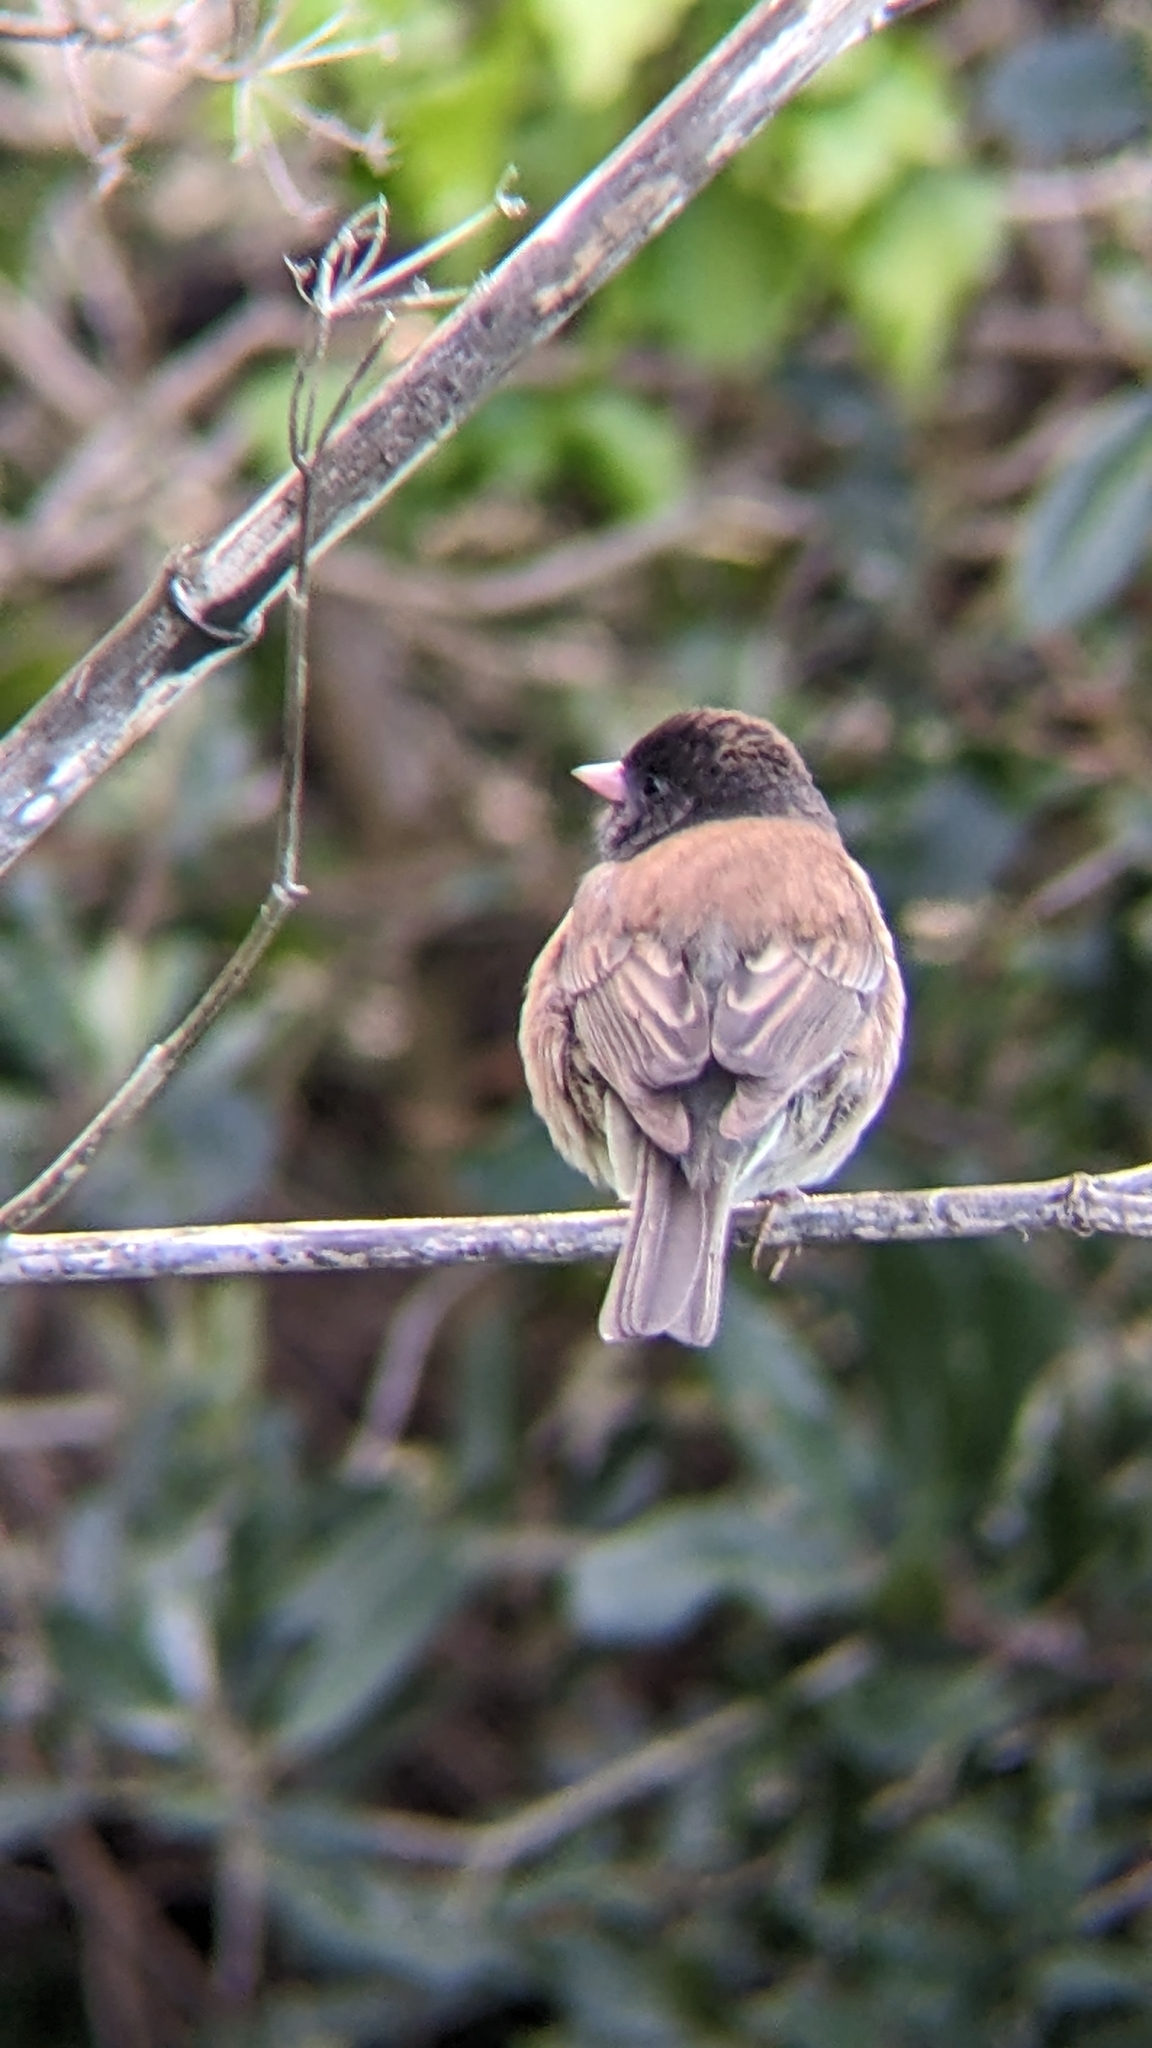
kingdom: Animalia
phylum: Chordata
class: Aves
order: Passeriformes
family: Passerellidae
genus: Junco
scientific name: Junco hyemalis
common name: Dark-eyed junco
